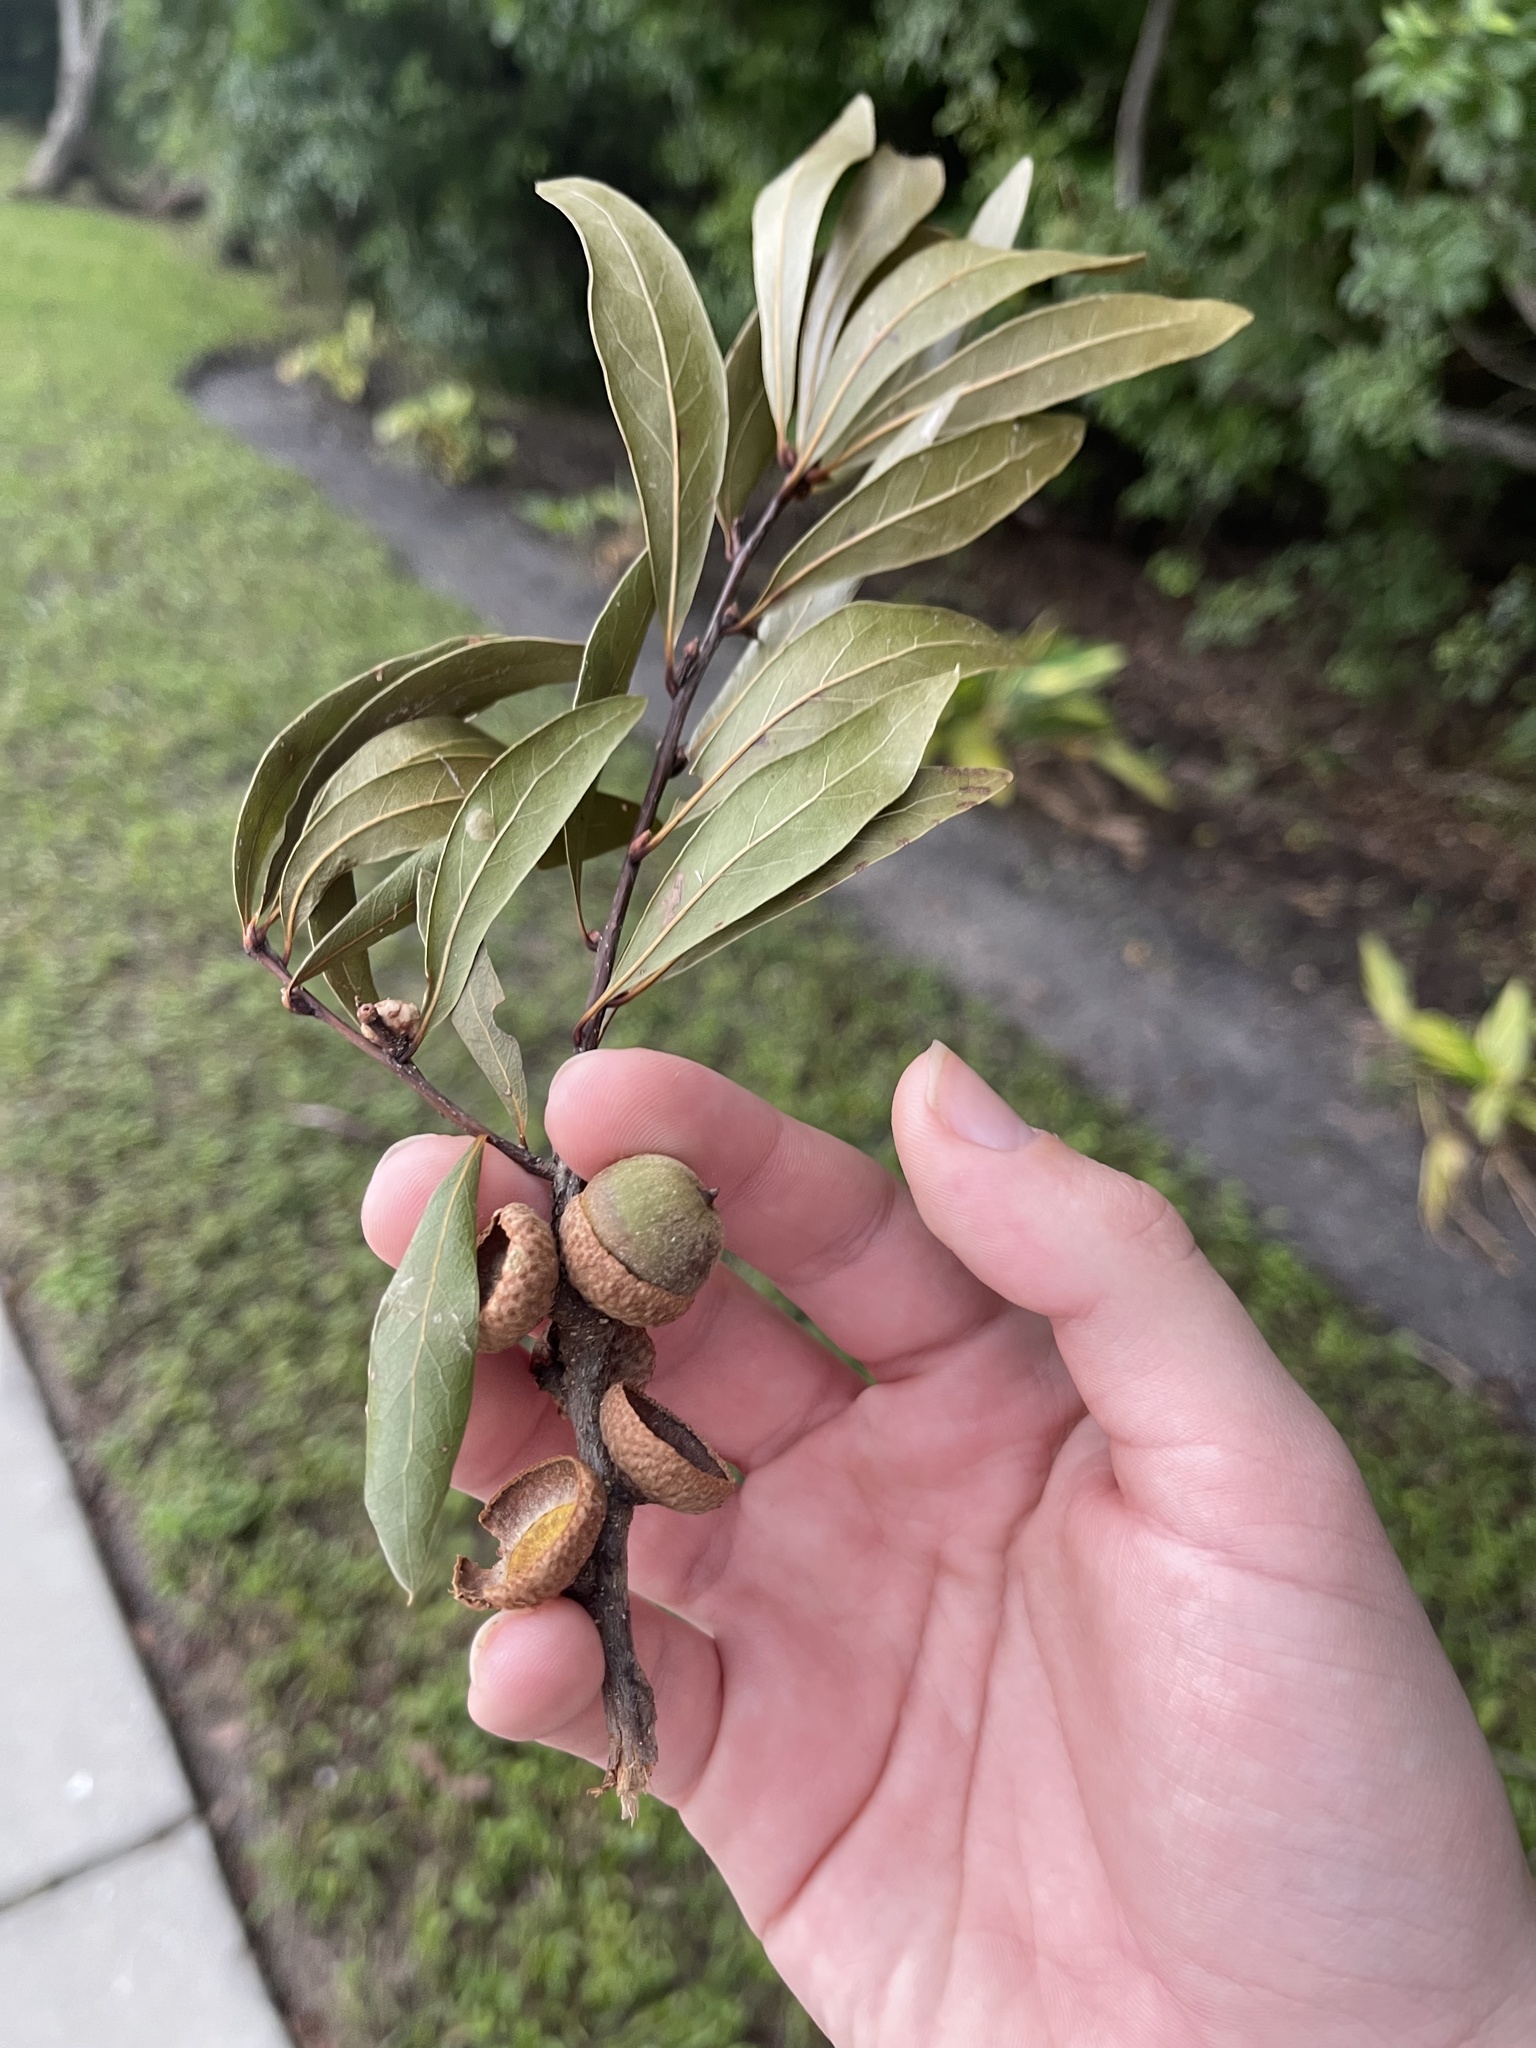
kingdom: Plantae
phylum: Tracheophyta
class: Magnoliopsida
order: Fagales
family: Fagaceae
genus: Quercus
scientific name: Quercus hemisphaerica
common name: Darlington oak
